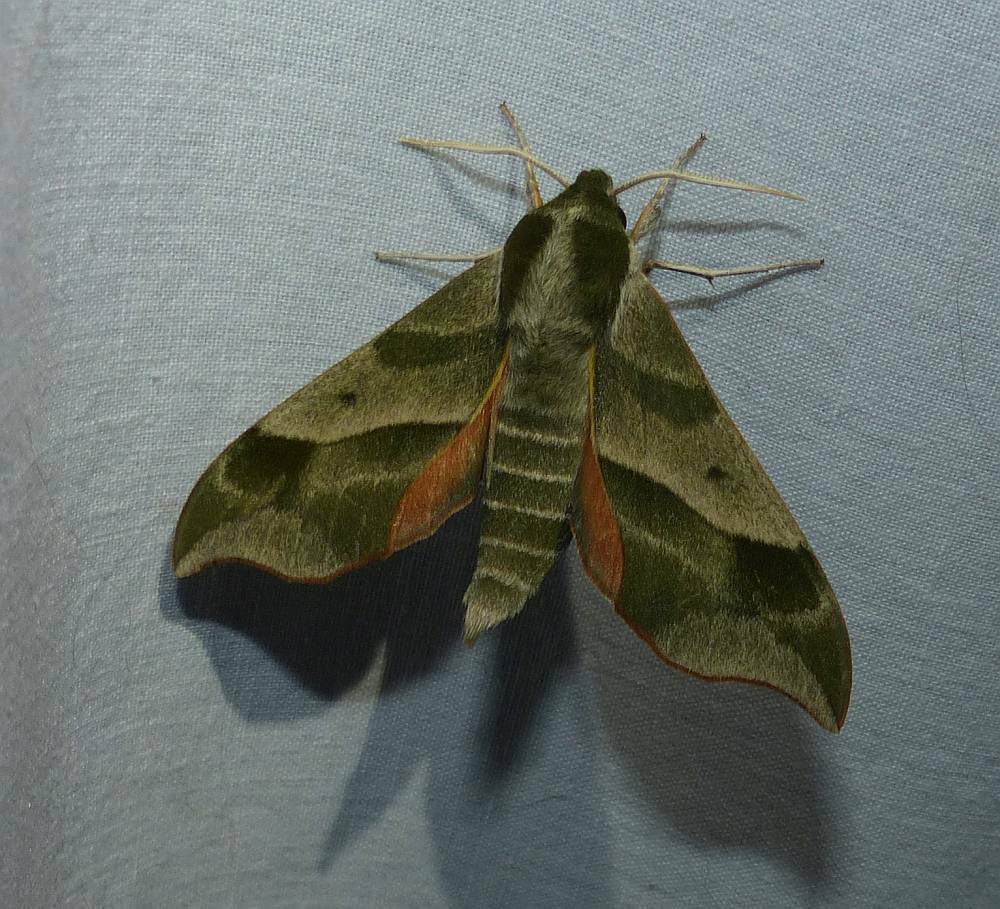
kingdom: Animalia
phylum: Arthropoda
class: Insecta
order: Lepidoptera
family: Sphingidae
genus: Darapsa
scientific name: Darapsa myron
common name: Hog sphinx
